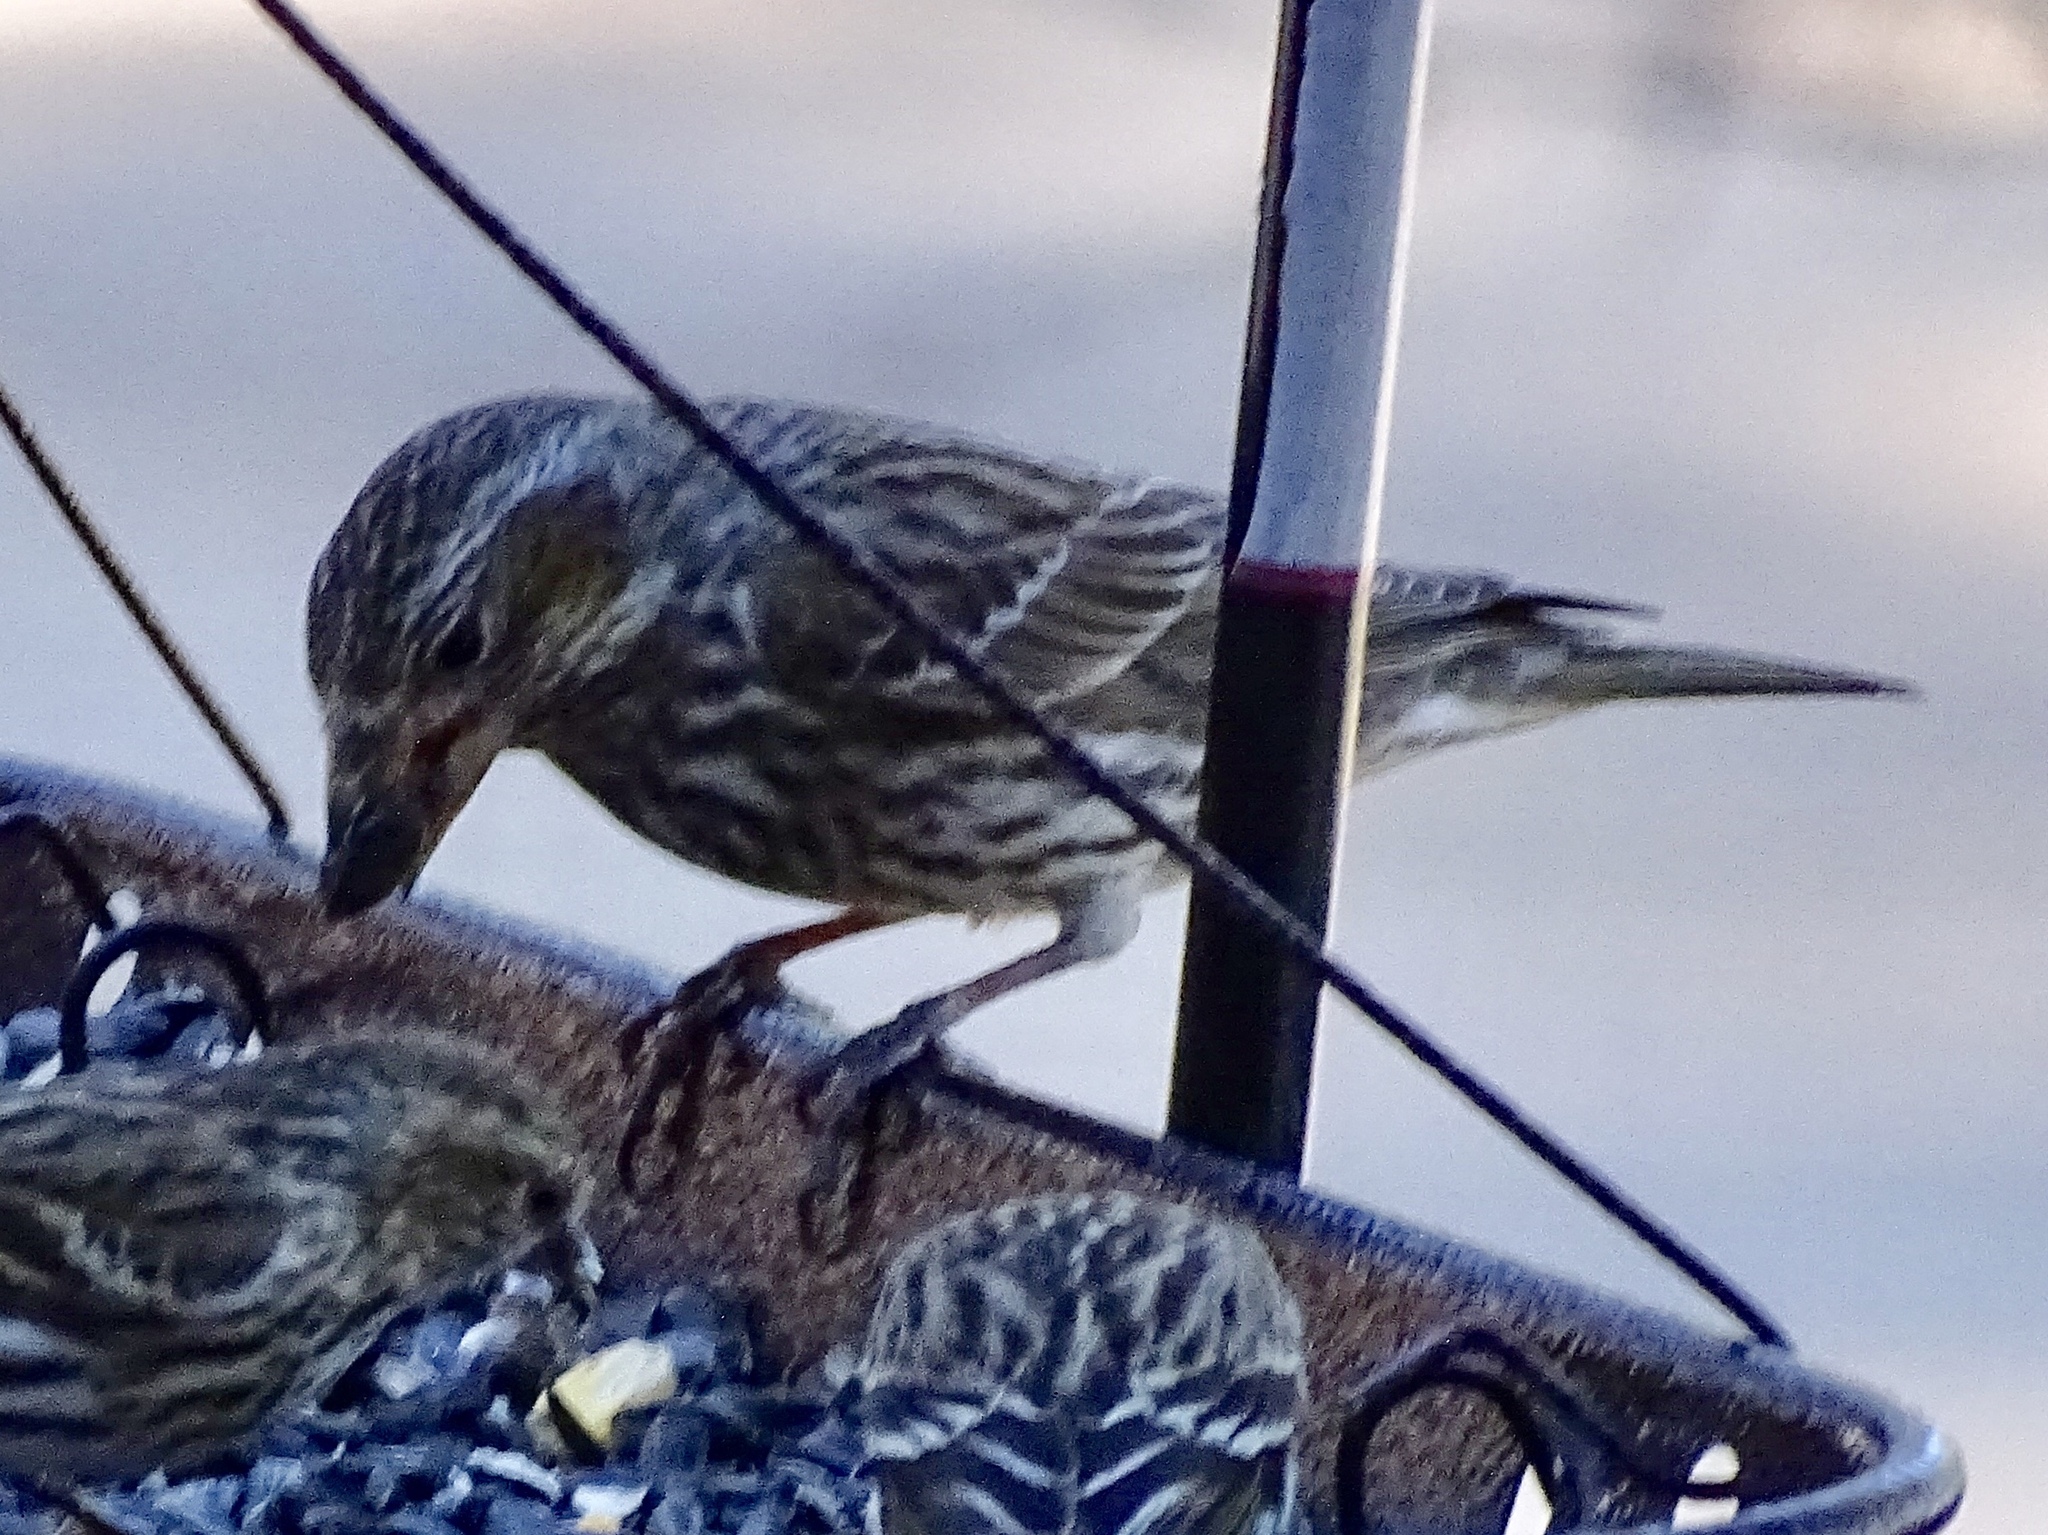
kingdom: Animalia
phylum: Chordata
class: Aves
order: Passeriformes
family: Fringillidae
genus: Haemorhous
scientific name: Haemorhous cassinii
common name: Cassin's finch
